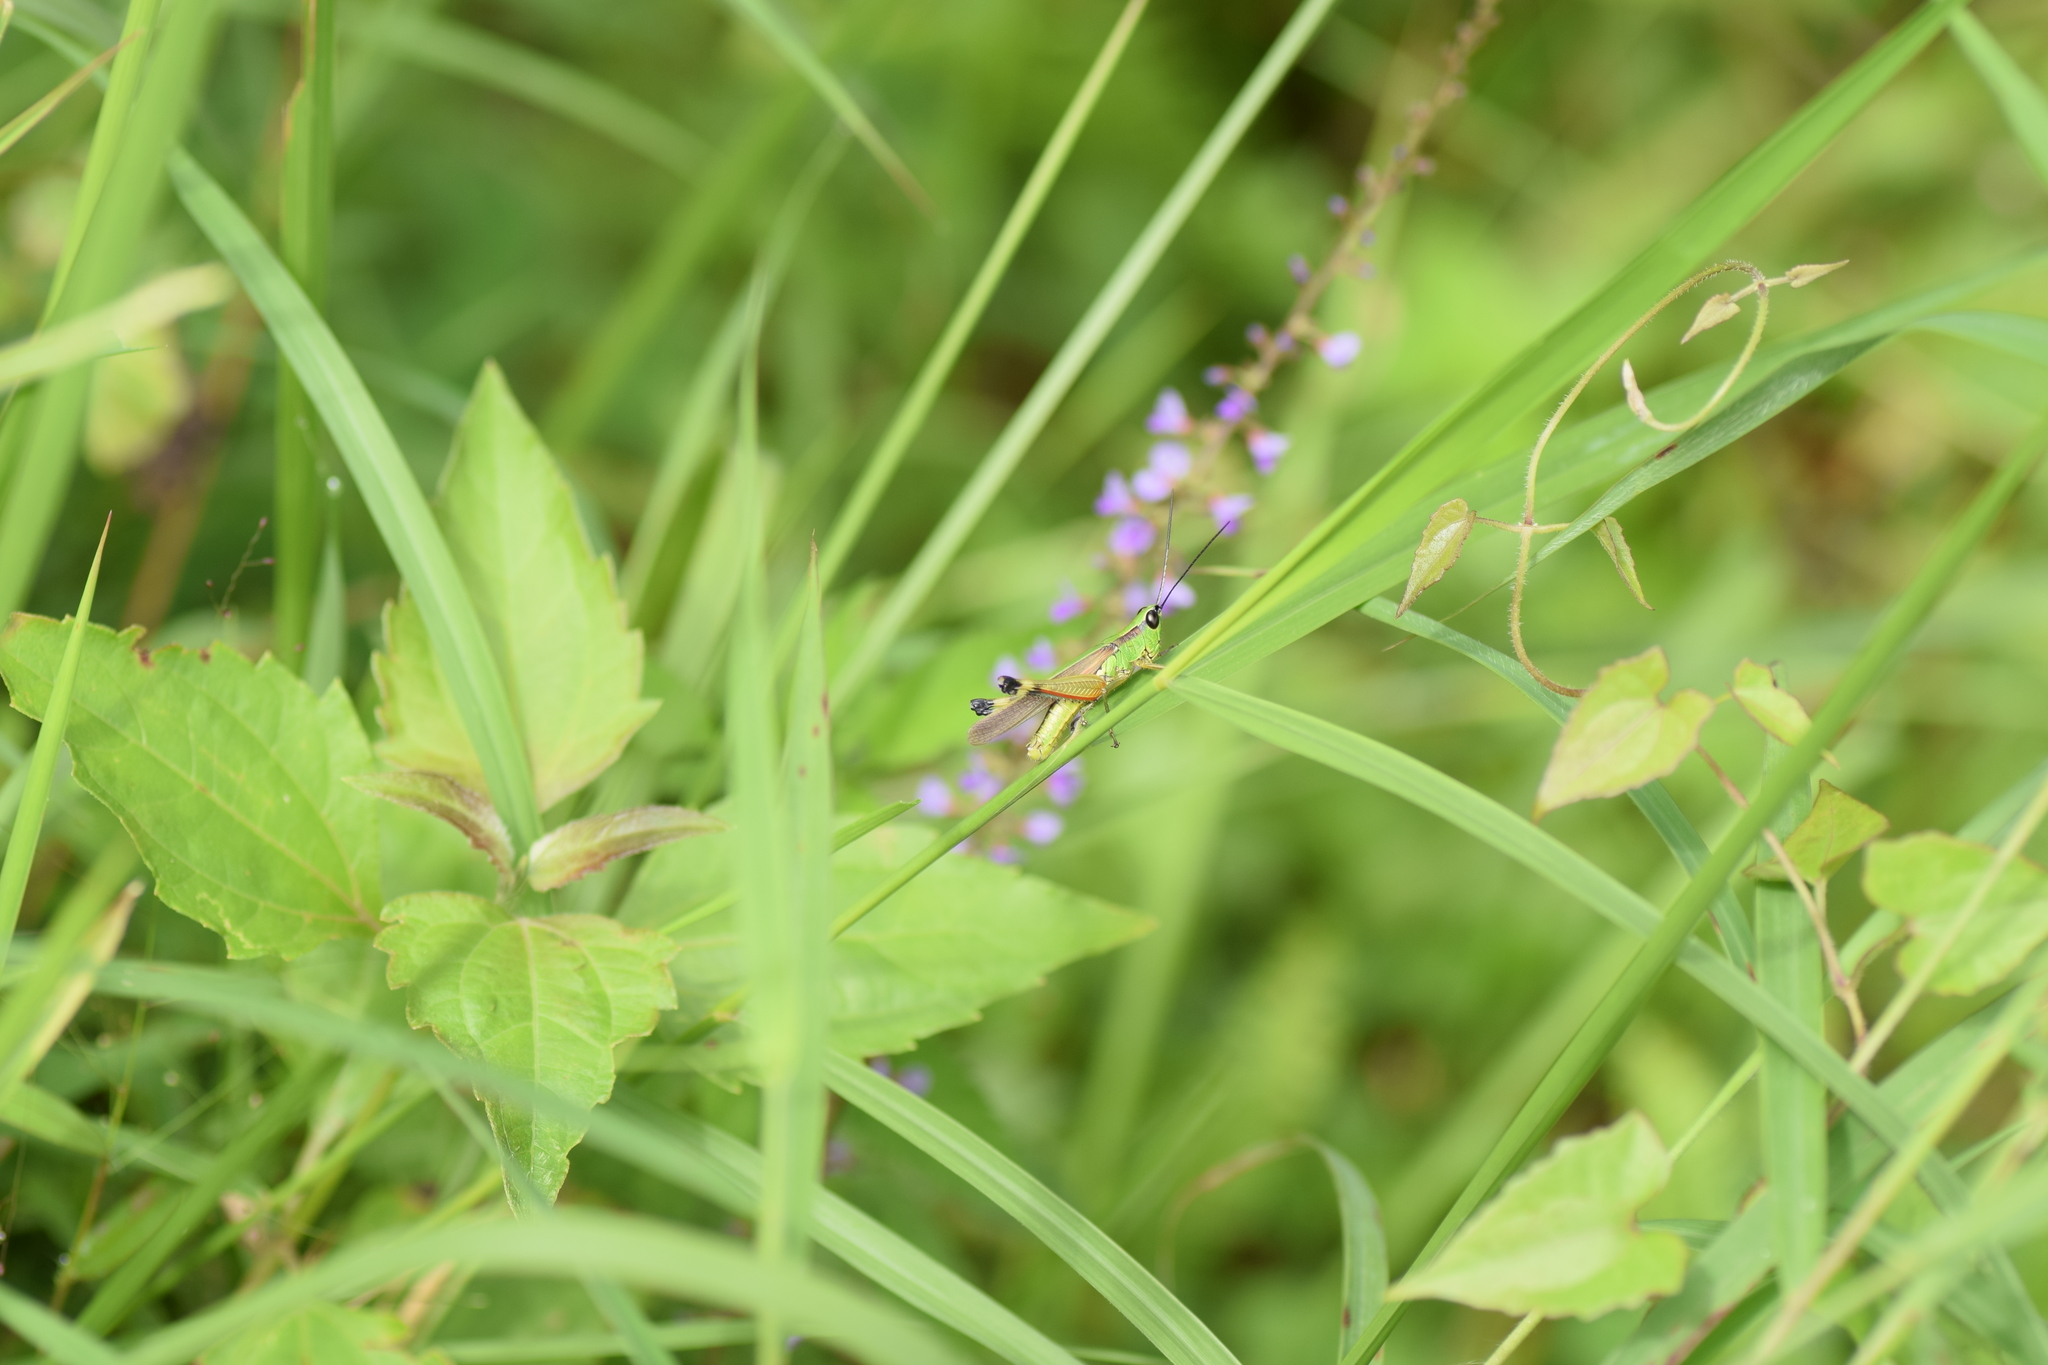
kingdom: Animalia
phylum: Arthropoda
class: Insecta
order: Orthoptera
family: Acrididae
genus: Ceracris
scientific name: Ceracris nigricornis
